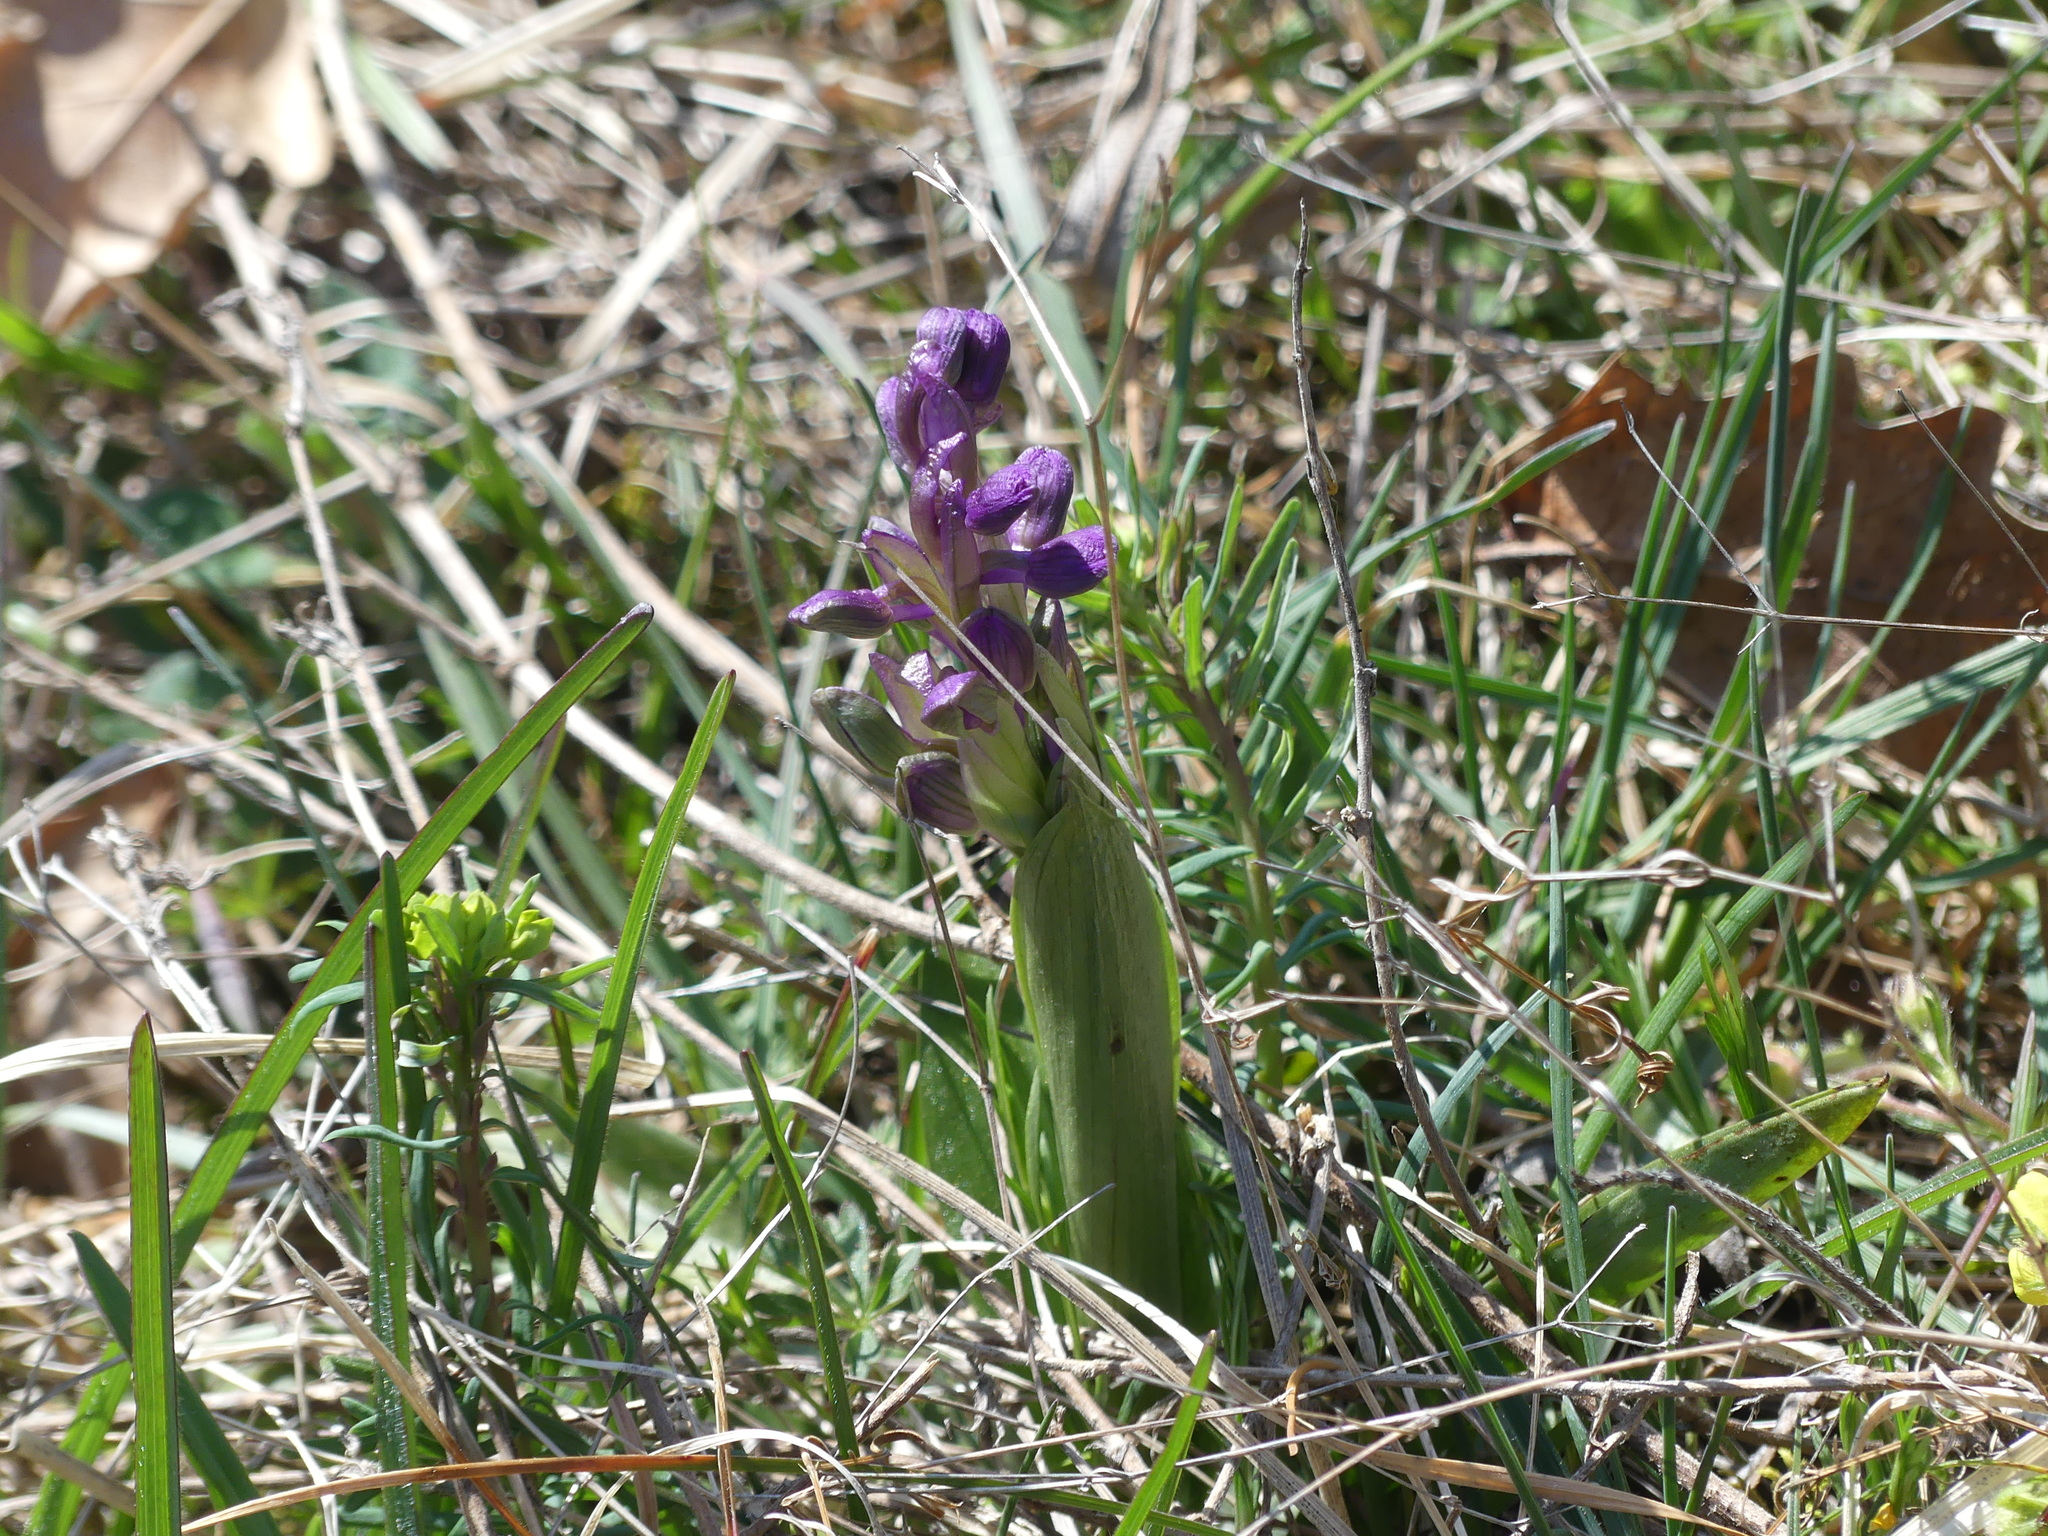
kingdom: Plantae
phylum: Tracheophyta
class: Liliopsida
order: Asparagales
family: Orchidaceae
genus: Anacamptis
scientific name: Anacamptis morio
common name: Green-winged orchid
